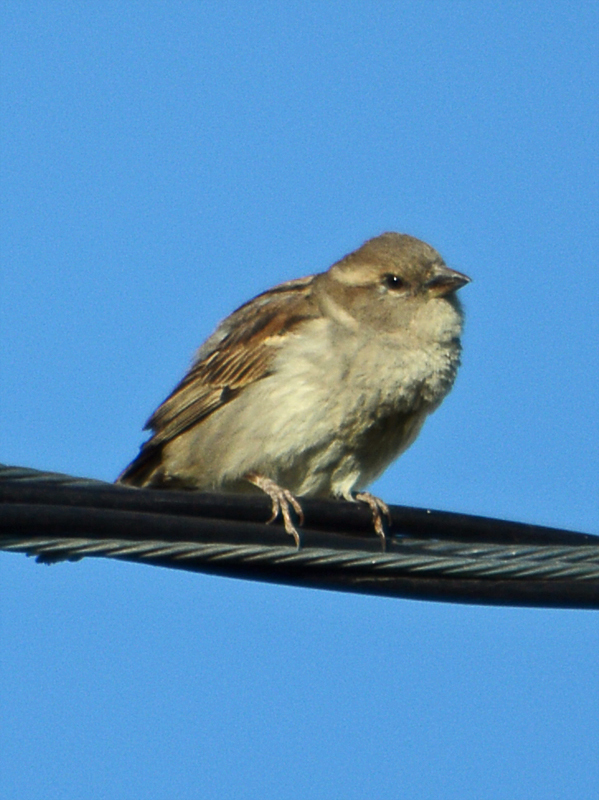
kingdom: Animalia
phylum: Chordata
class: Aves
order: Passeriformes
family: Passeridae
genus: Passer
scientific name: Passer domesticus
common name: House sparrow
